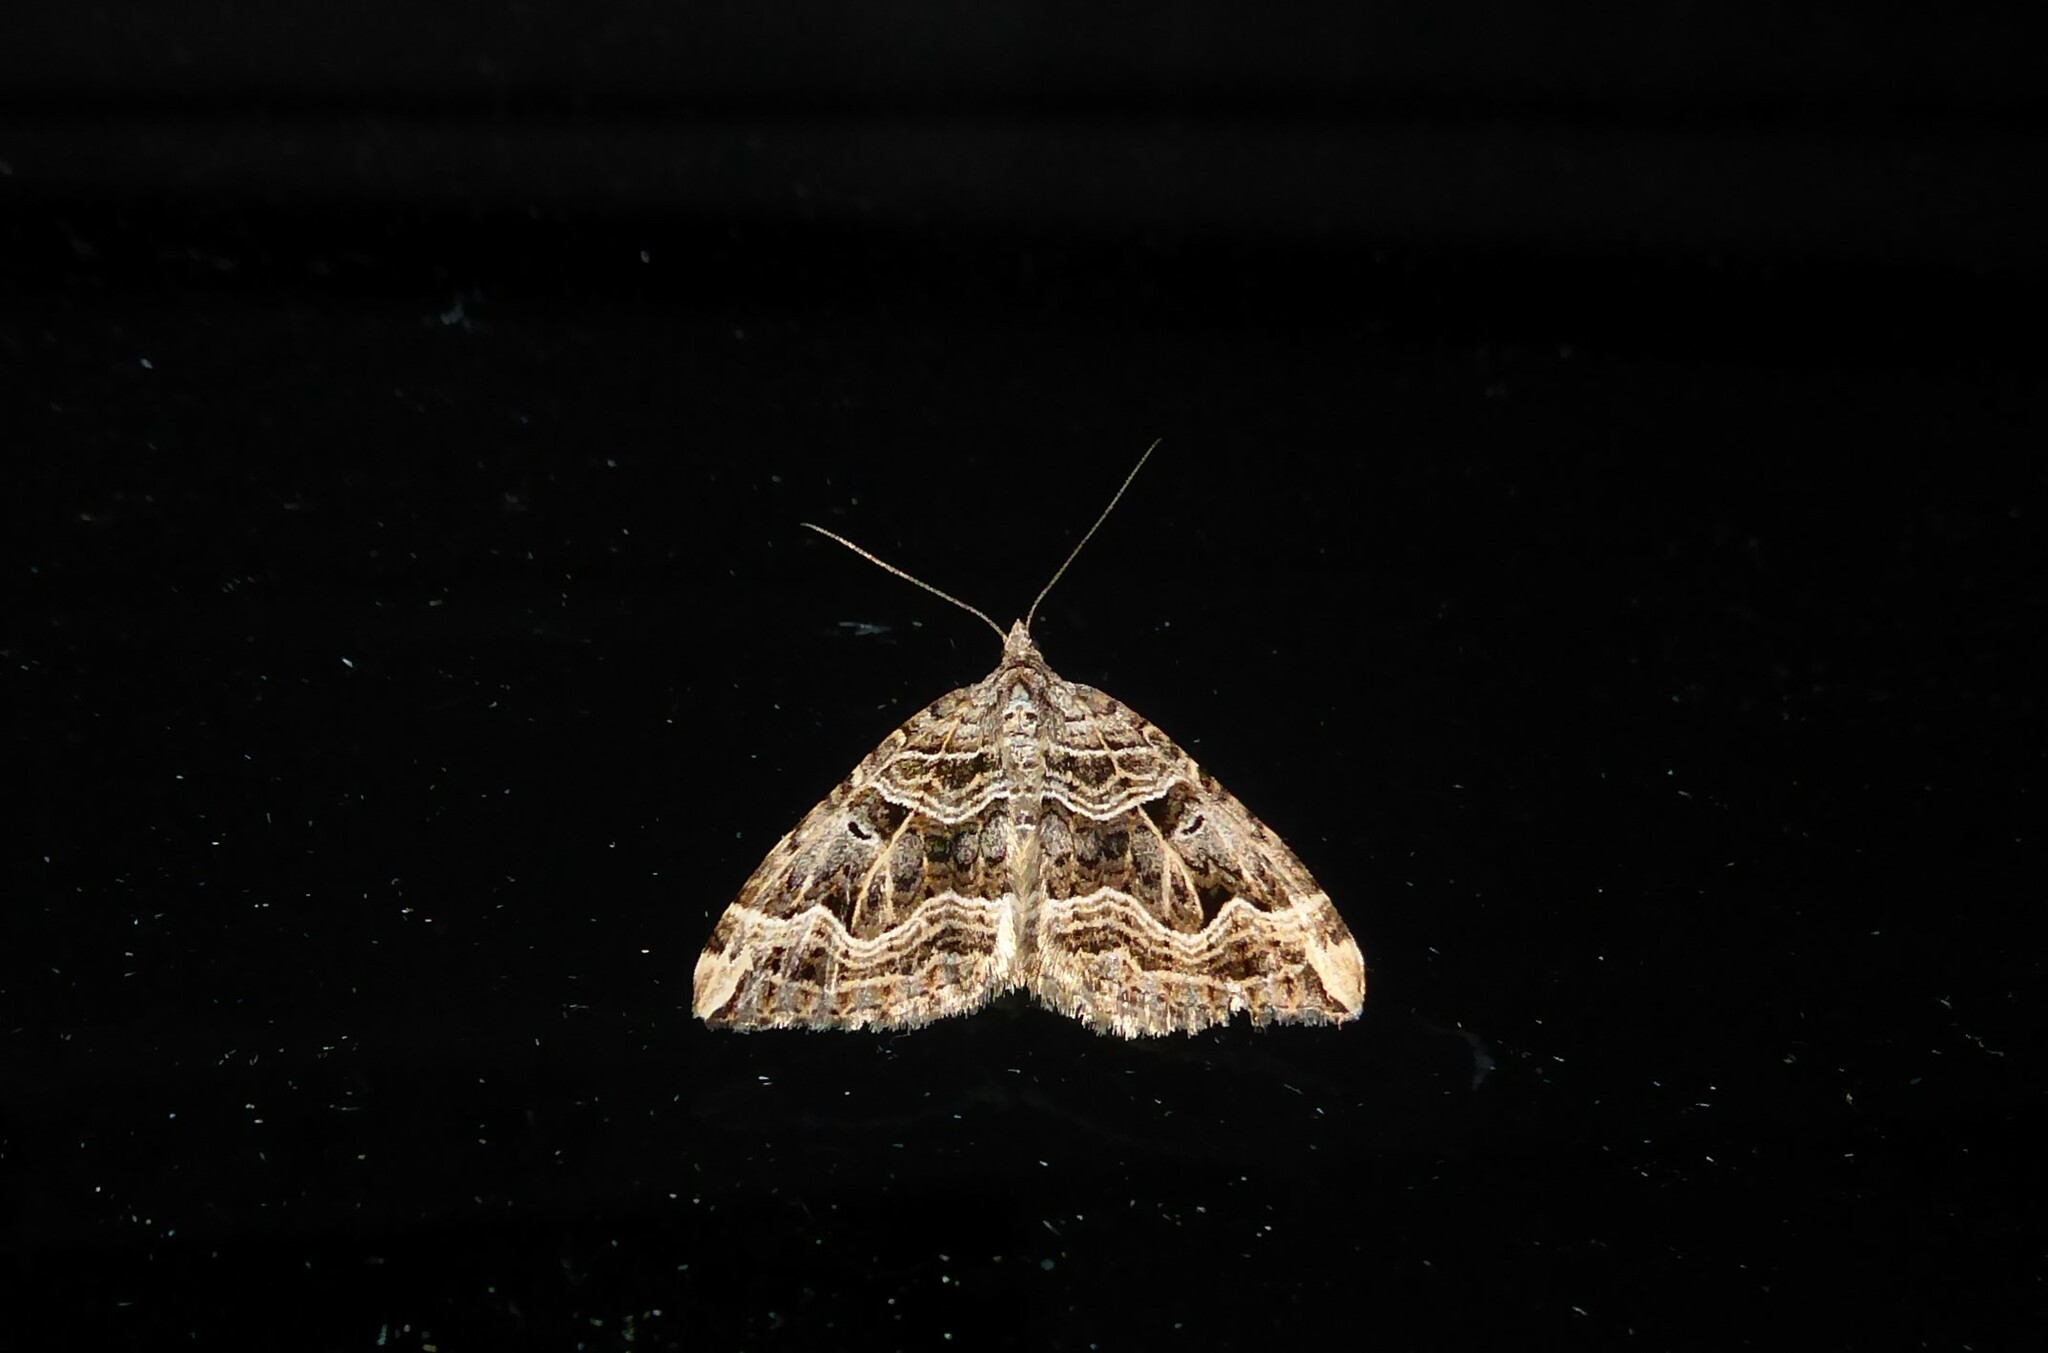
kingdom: Animalia
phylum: Arthropoda
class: Insecta
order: Lepidoptera
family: Geometridae
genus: Xanthorhoe
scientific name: Xanthorhoe semifissata
